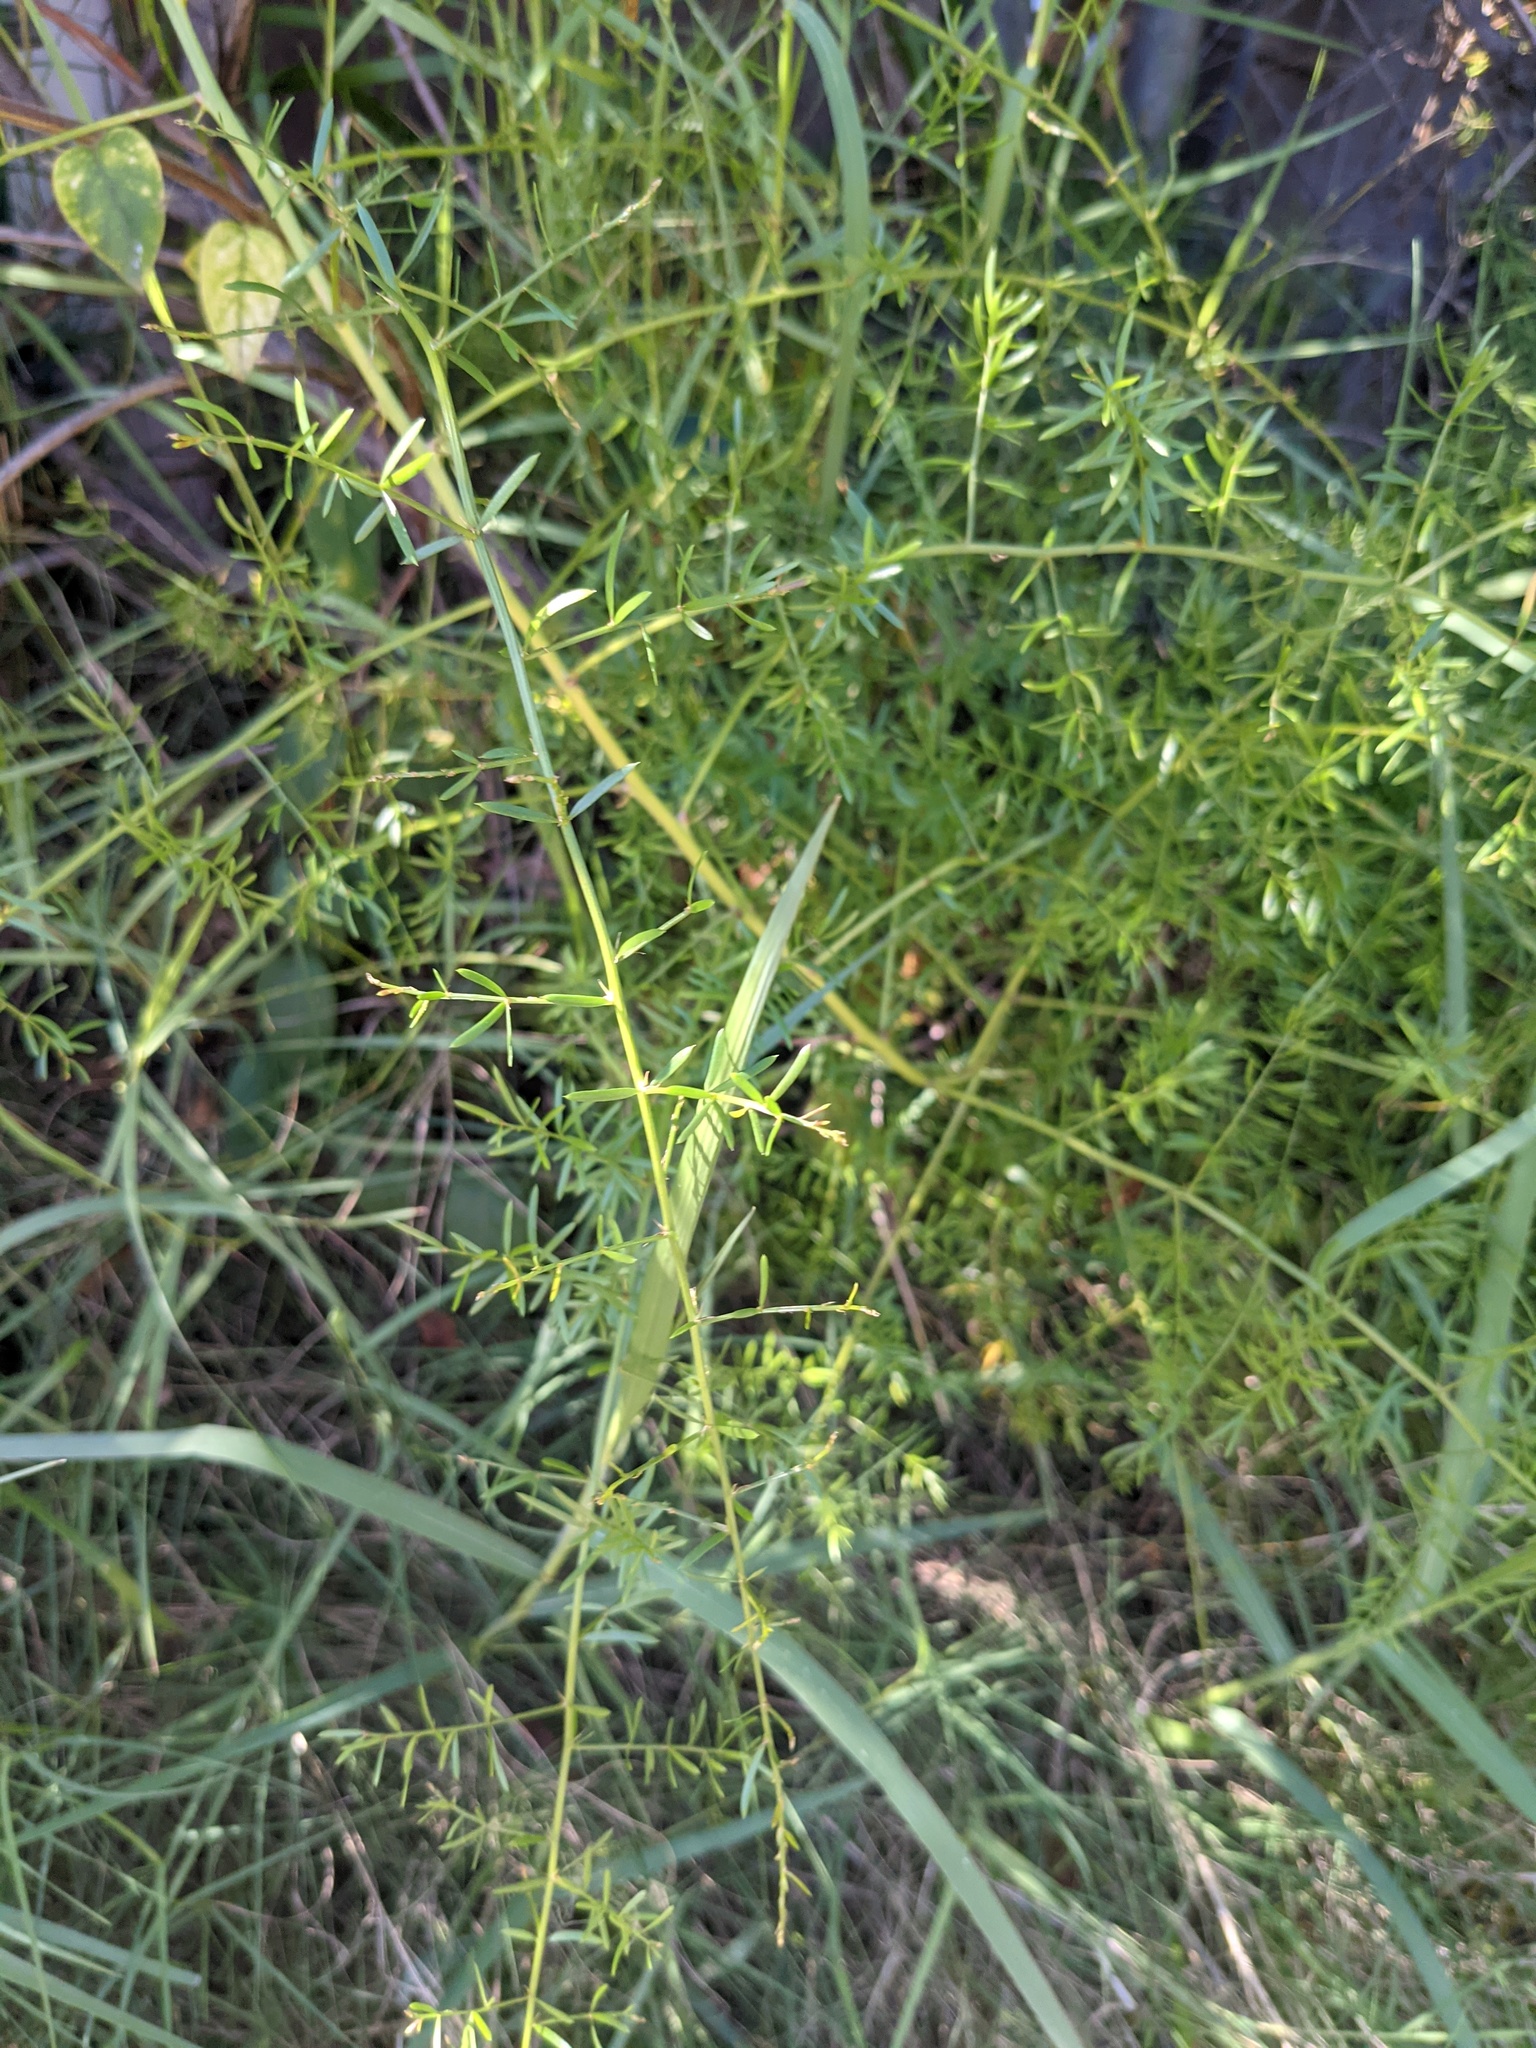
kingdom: Plantae
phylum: Tracheophyta
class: Liliopsida
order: Asparagales
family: Asparagaceae
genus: Asparagus
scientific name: Asparagus aethiopicus
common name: Sprenger's asparagus fern
